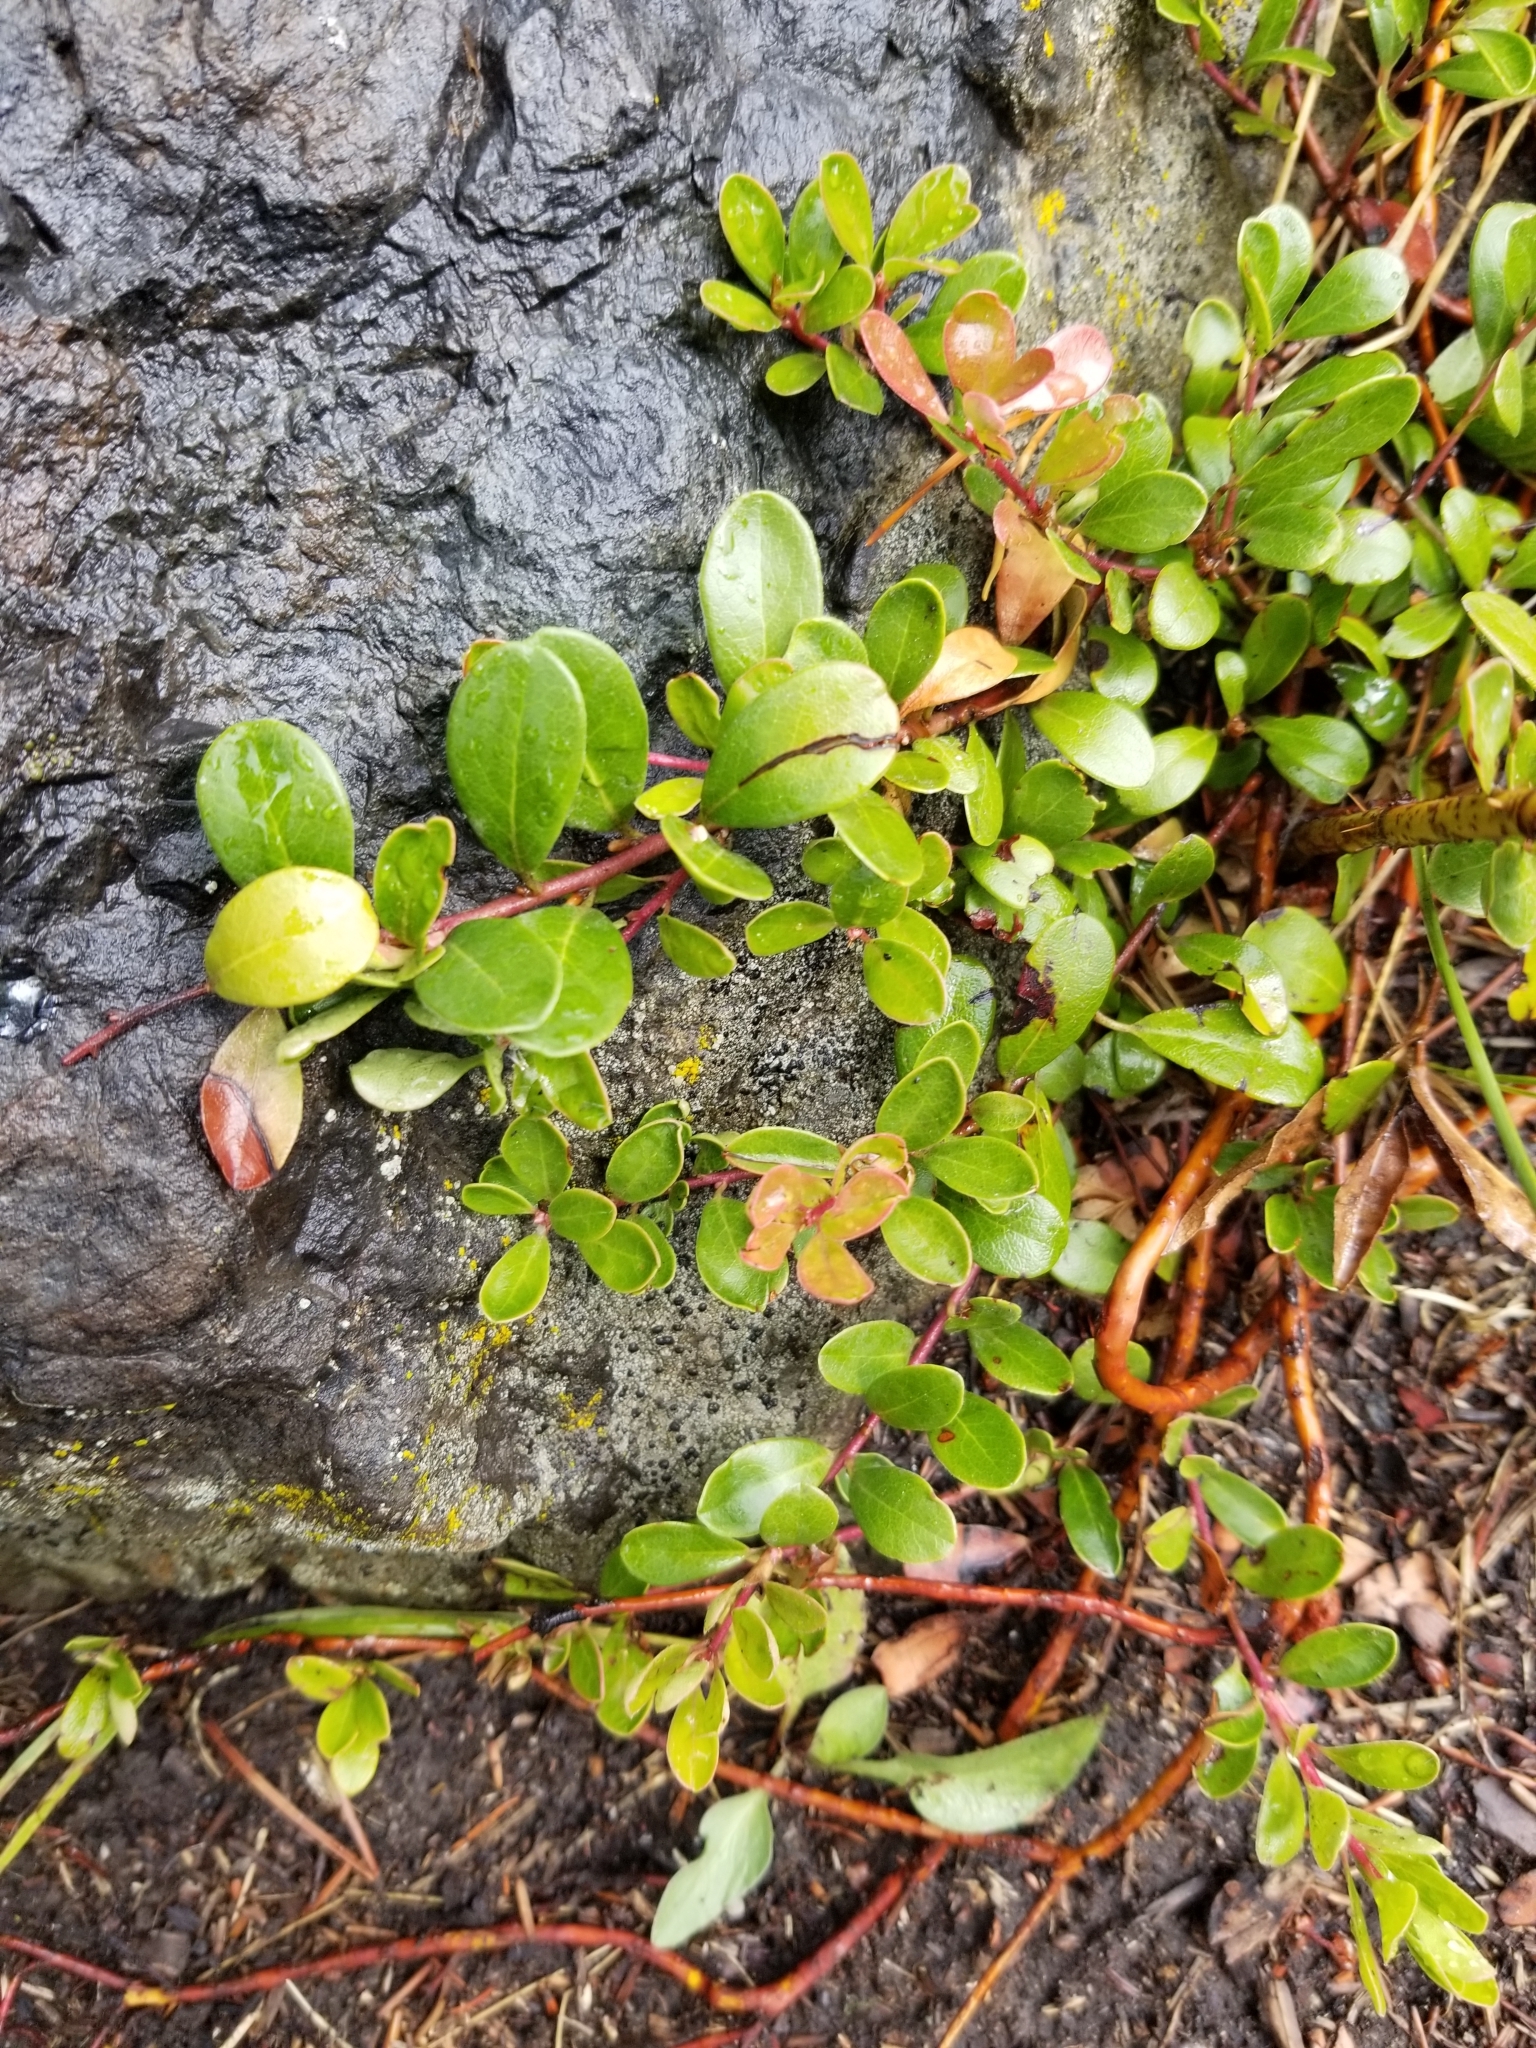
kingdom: Plantae
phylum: Tracheophyta
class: Magnoliopsida
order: Ericales
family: Ericaceae
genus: Arctostaphylos
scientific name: Arctostaphylos uva-ursi
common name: Bearberry
